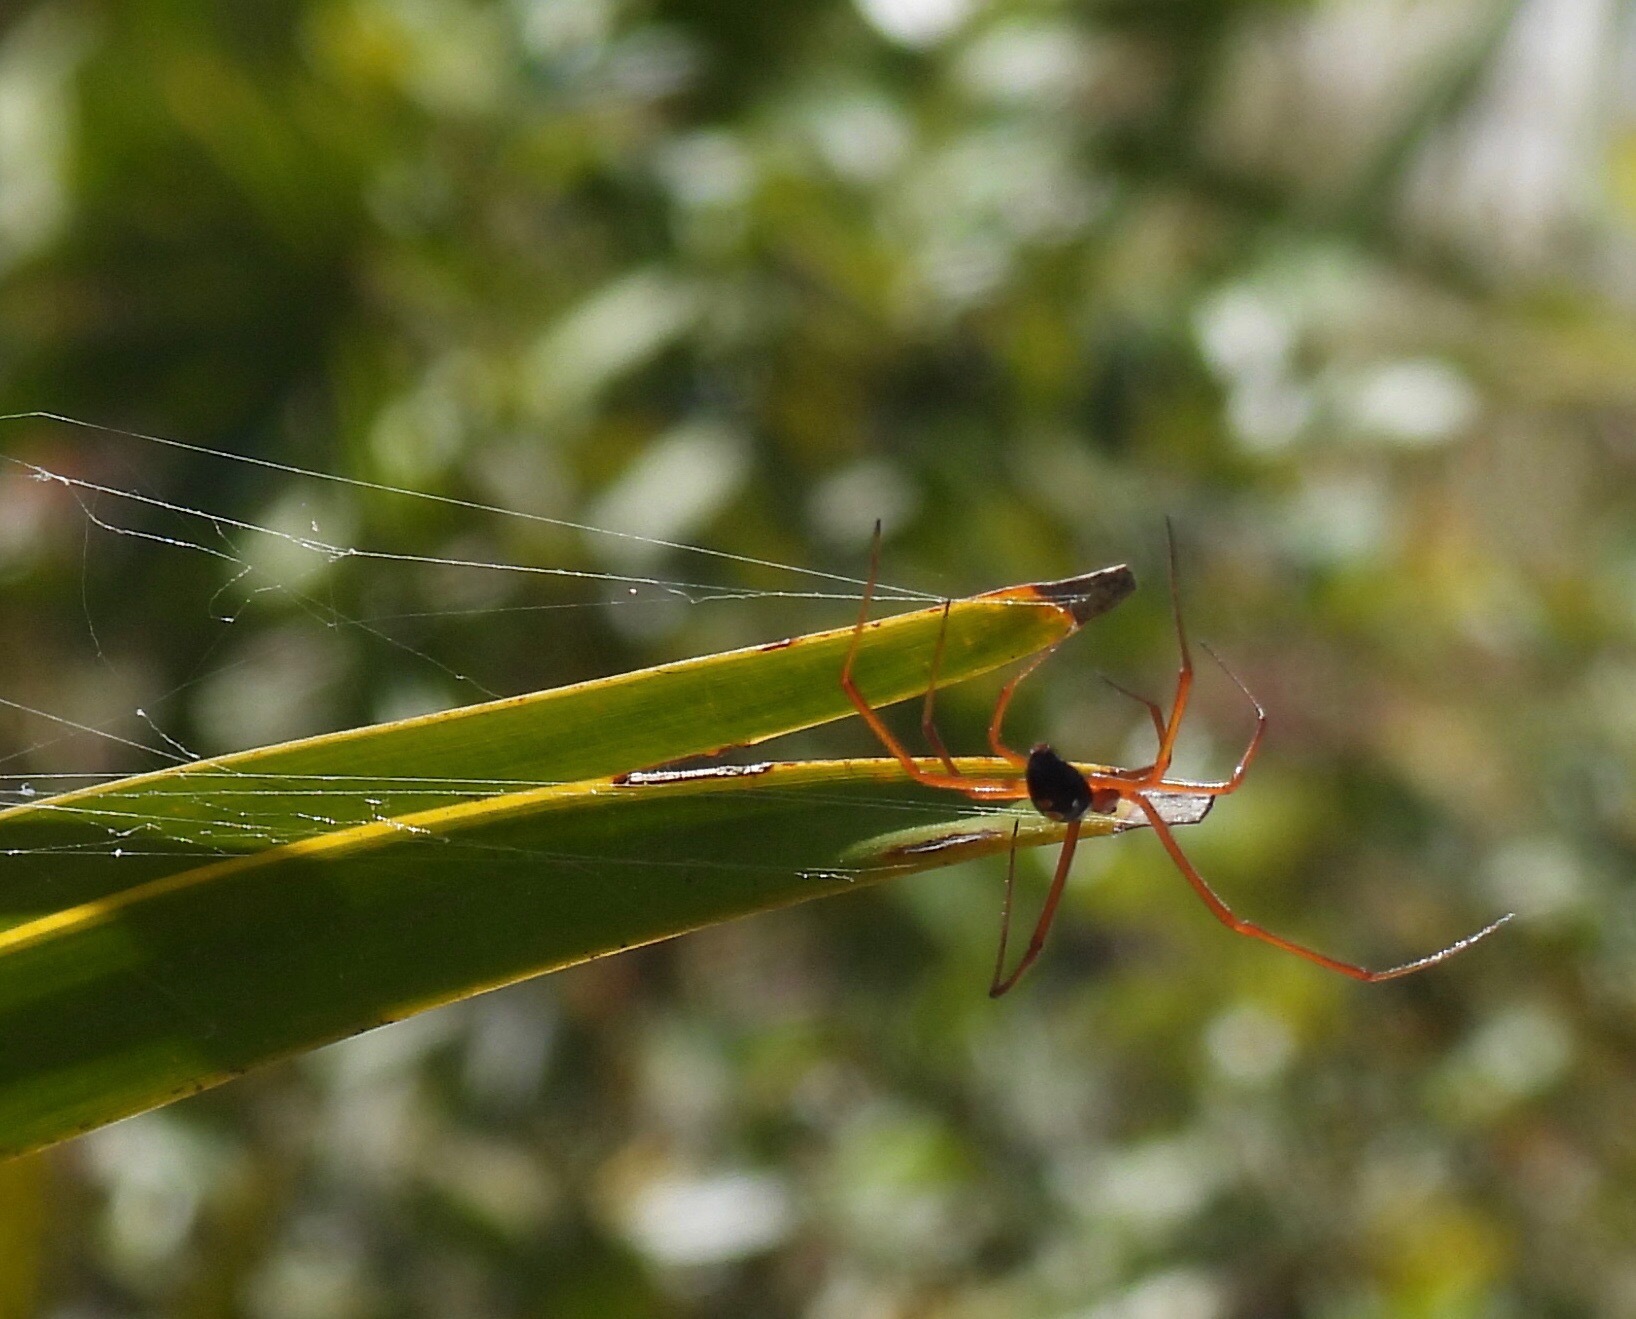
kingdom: Animalia
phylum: Arthropoda
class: Arachnida
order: Araneae
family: Theridiidae
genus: Latrodectus
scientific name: Latrodectus bishopi
